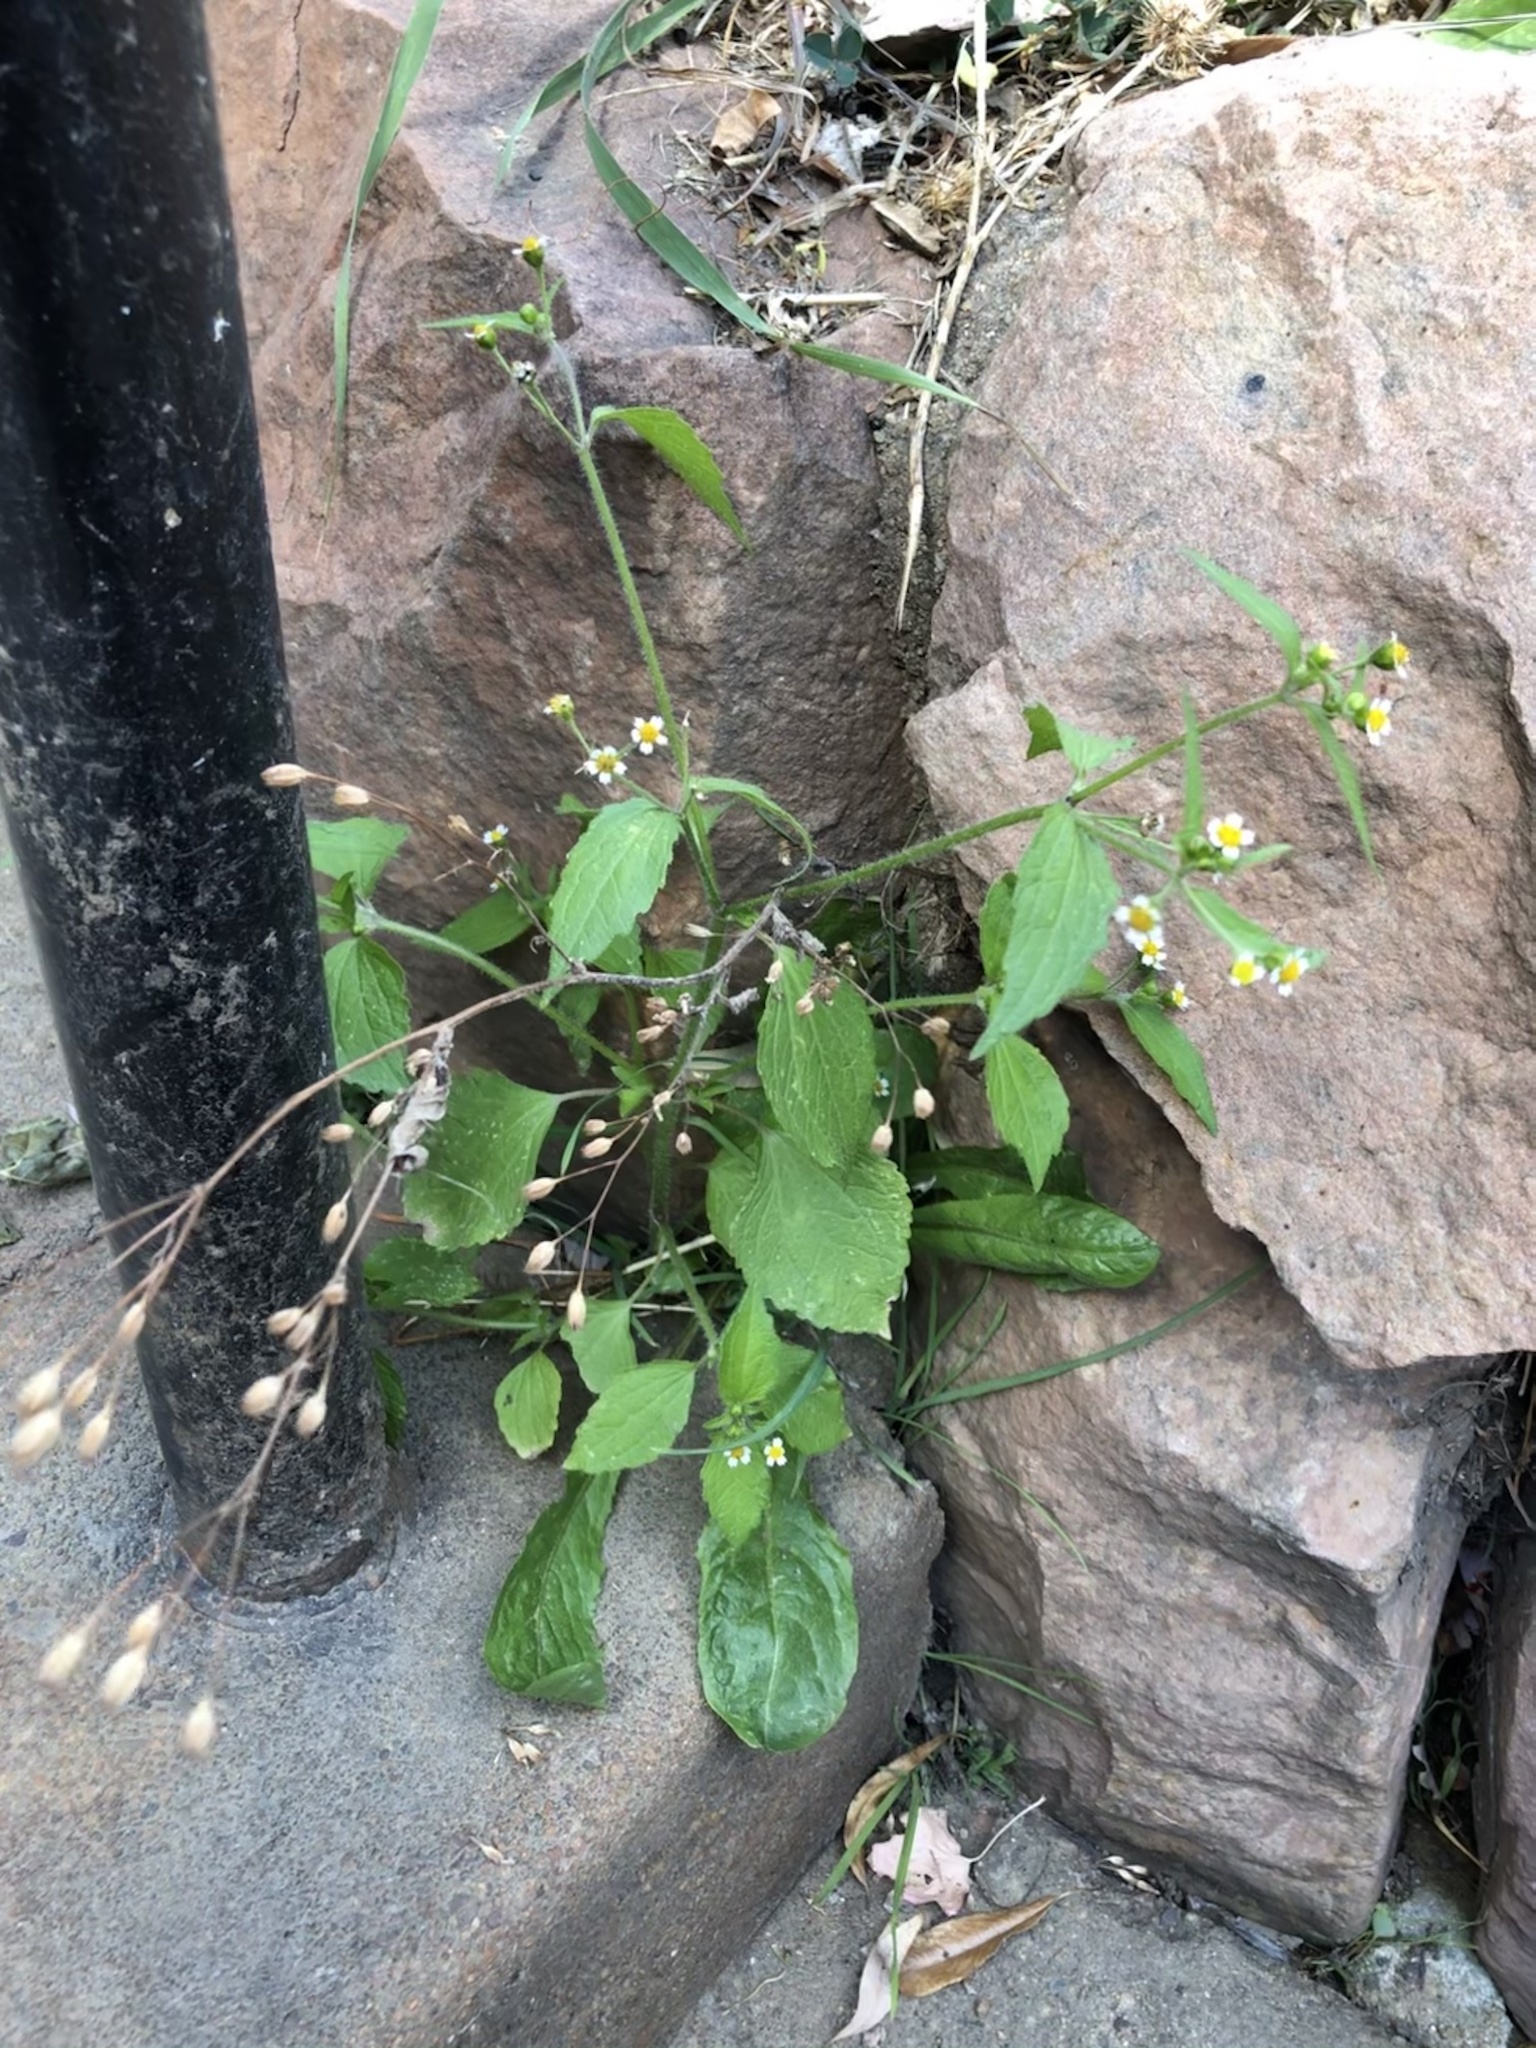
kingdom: Plantae
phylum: Tracheophyta
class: Magnoliopsida
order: Asterales
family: Asteraceae
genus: Galinsoga
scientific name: Galinsoga quadriradiata
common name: Shaggy soldier
